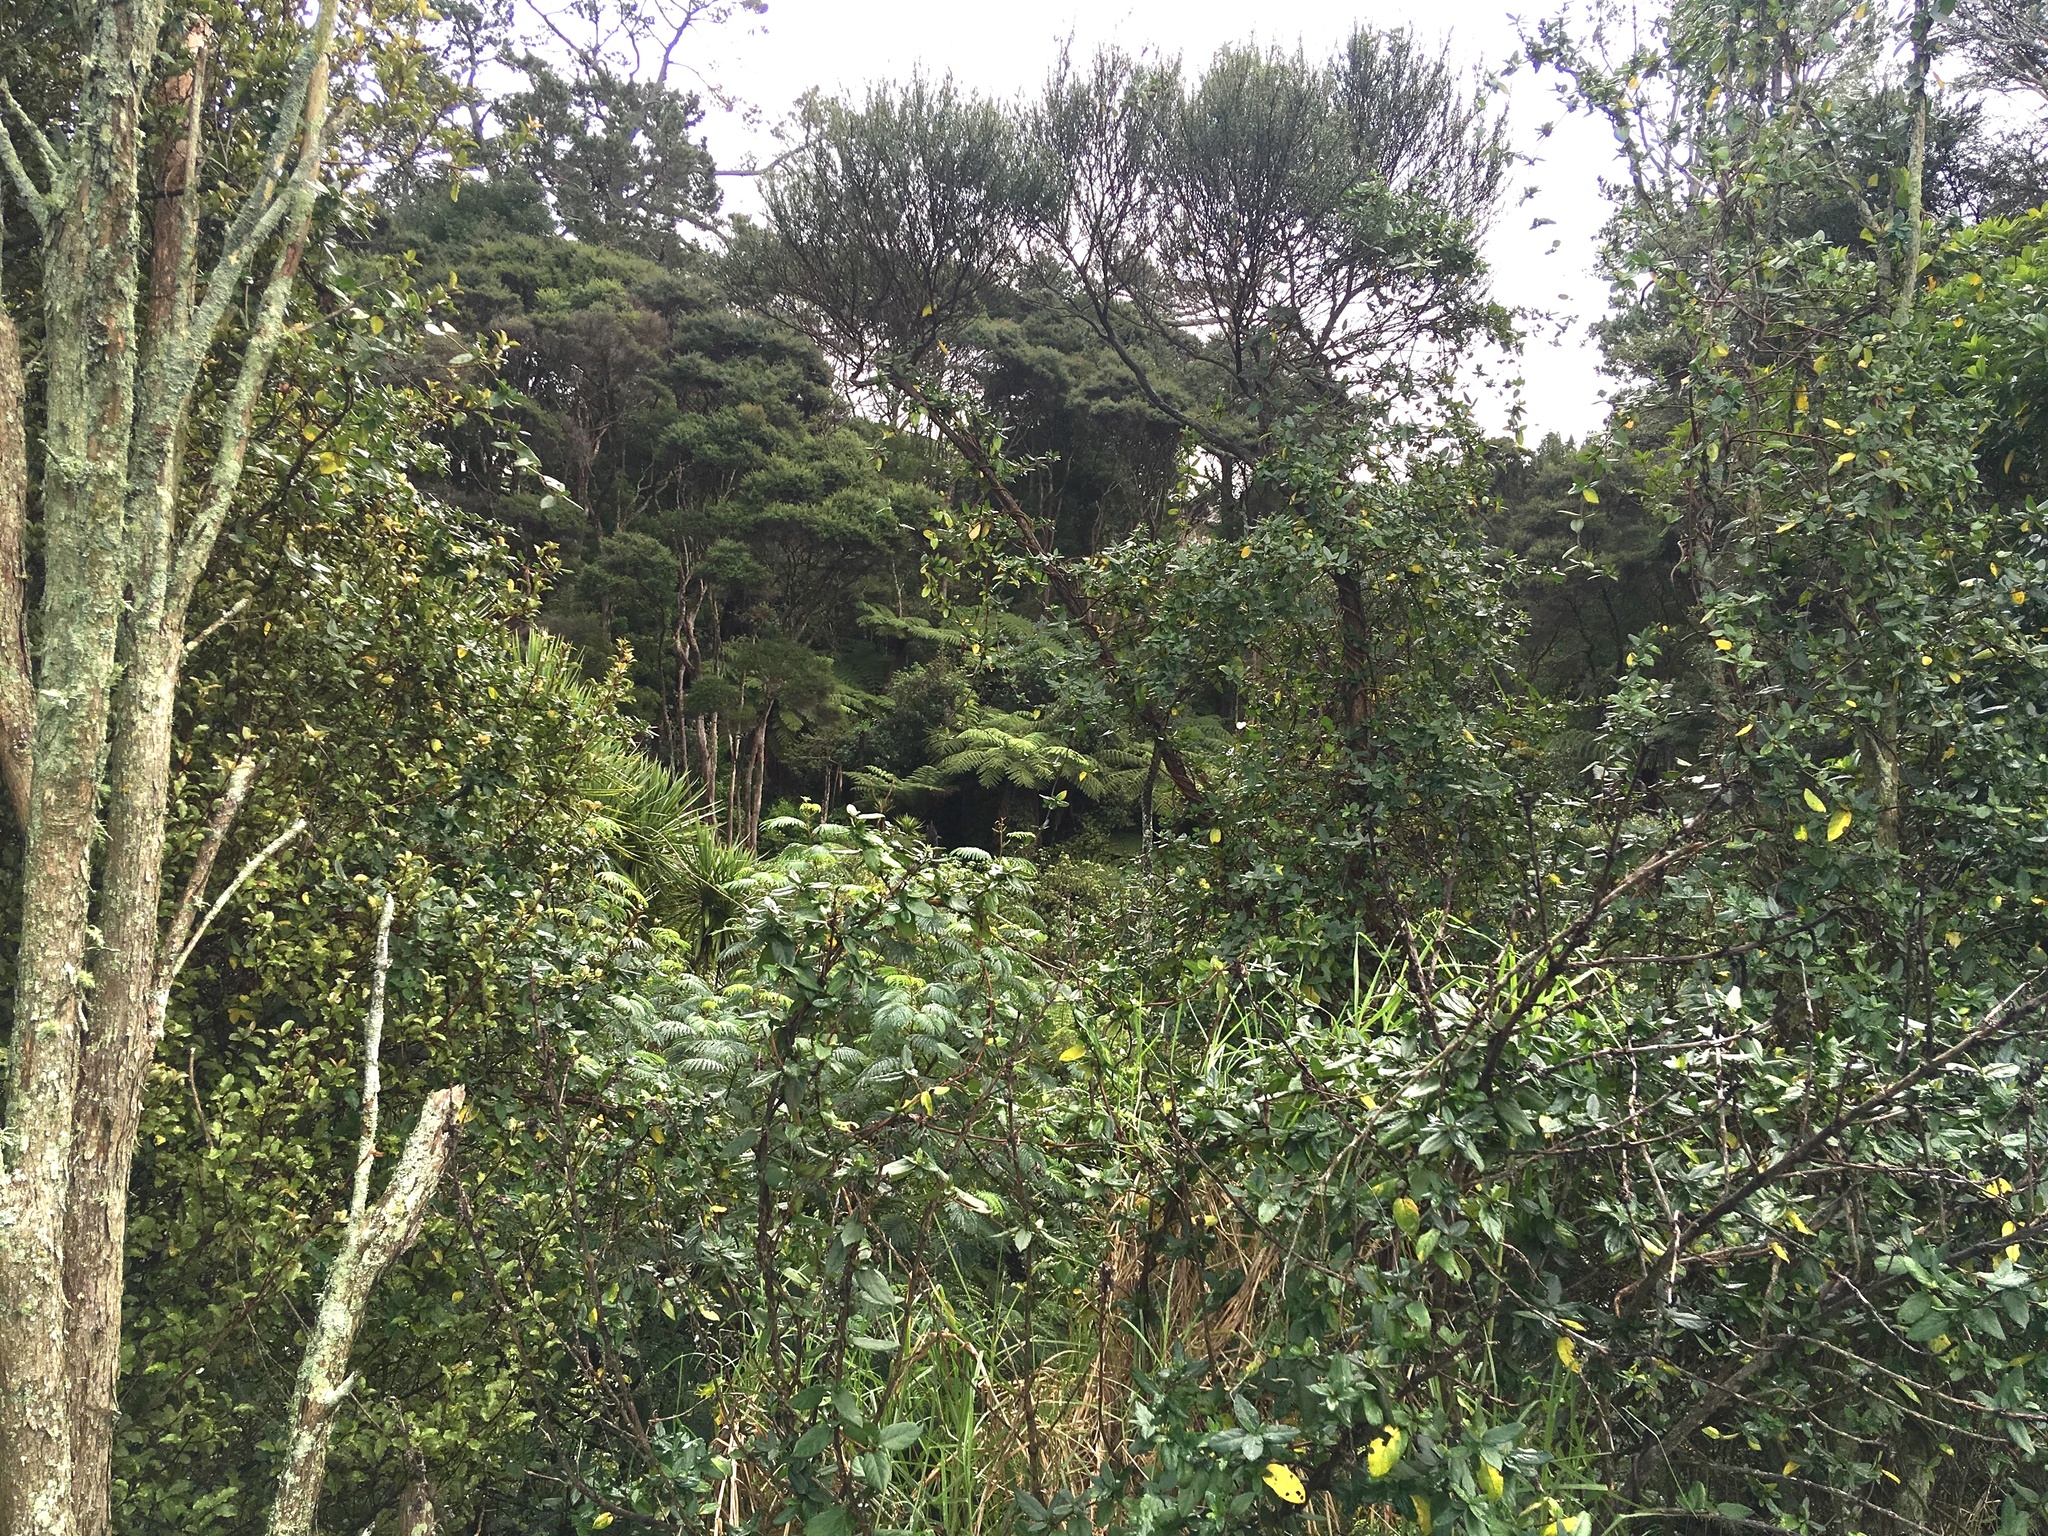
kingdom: Plantae
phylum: Tracheophyta
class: Liliopsida
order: Poales
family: Poaceae
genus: Cenchrus
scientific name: Cenchrus clandestinus
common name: Kikuyugrass
